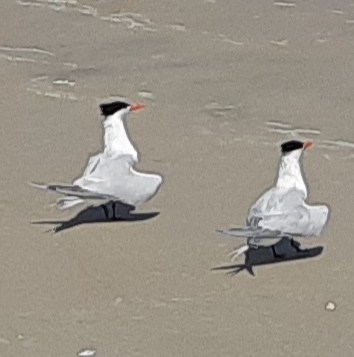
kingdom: Animalia
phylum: Chordata
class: Aves
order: Charadriiformes
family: Laridae
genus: Thalasseus
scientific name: Thalasseus maximus
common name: Royal tern
